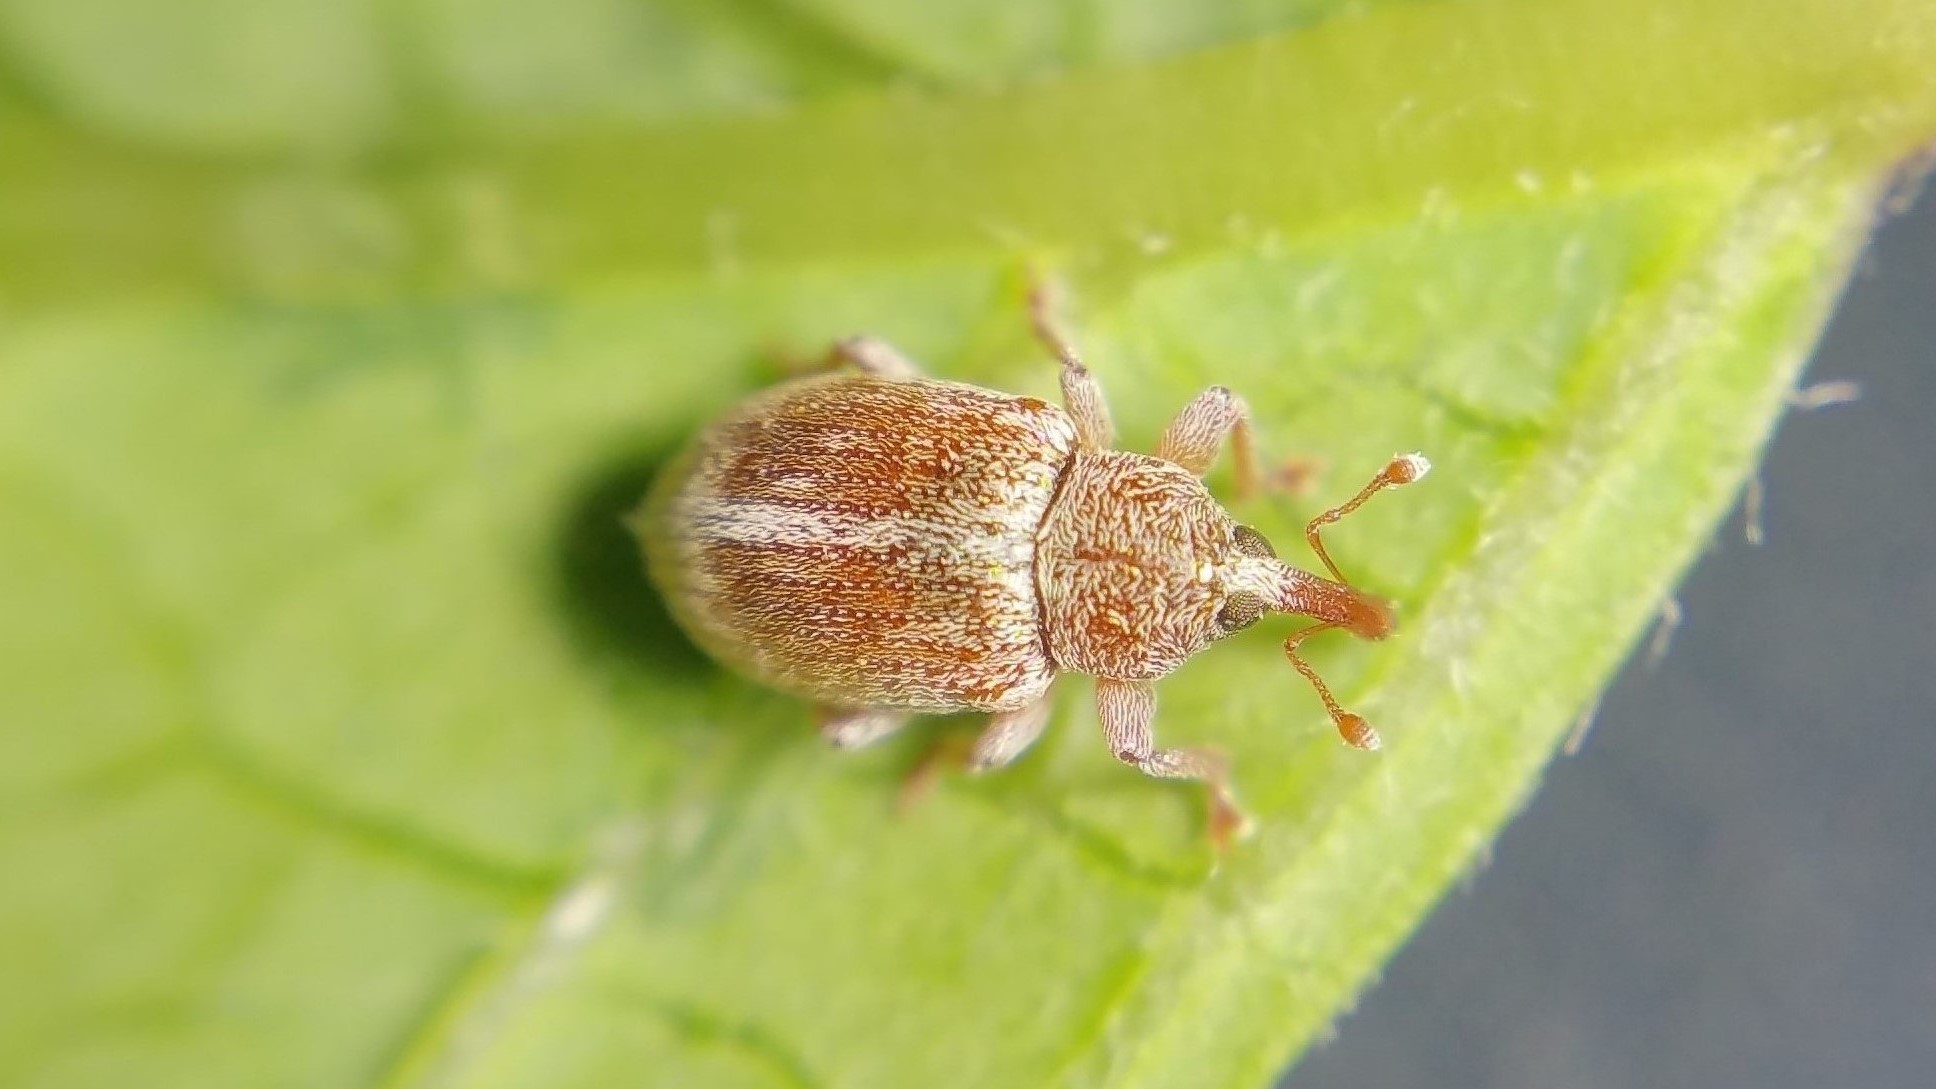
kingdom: Animalia
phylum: Arthropoda
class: Insecta
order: Coleoptera
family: Curculionidae
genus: Ellescus
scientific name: Ellescus scanicus
